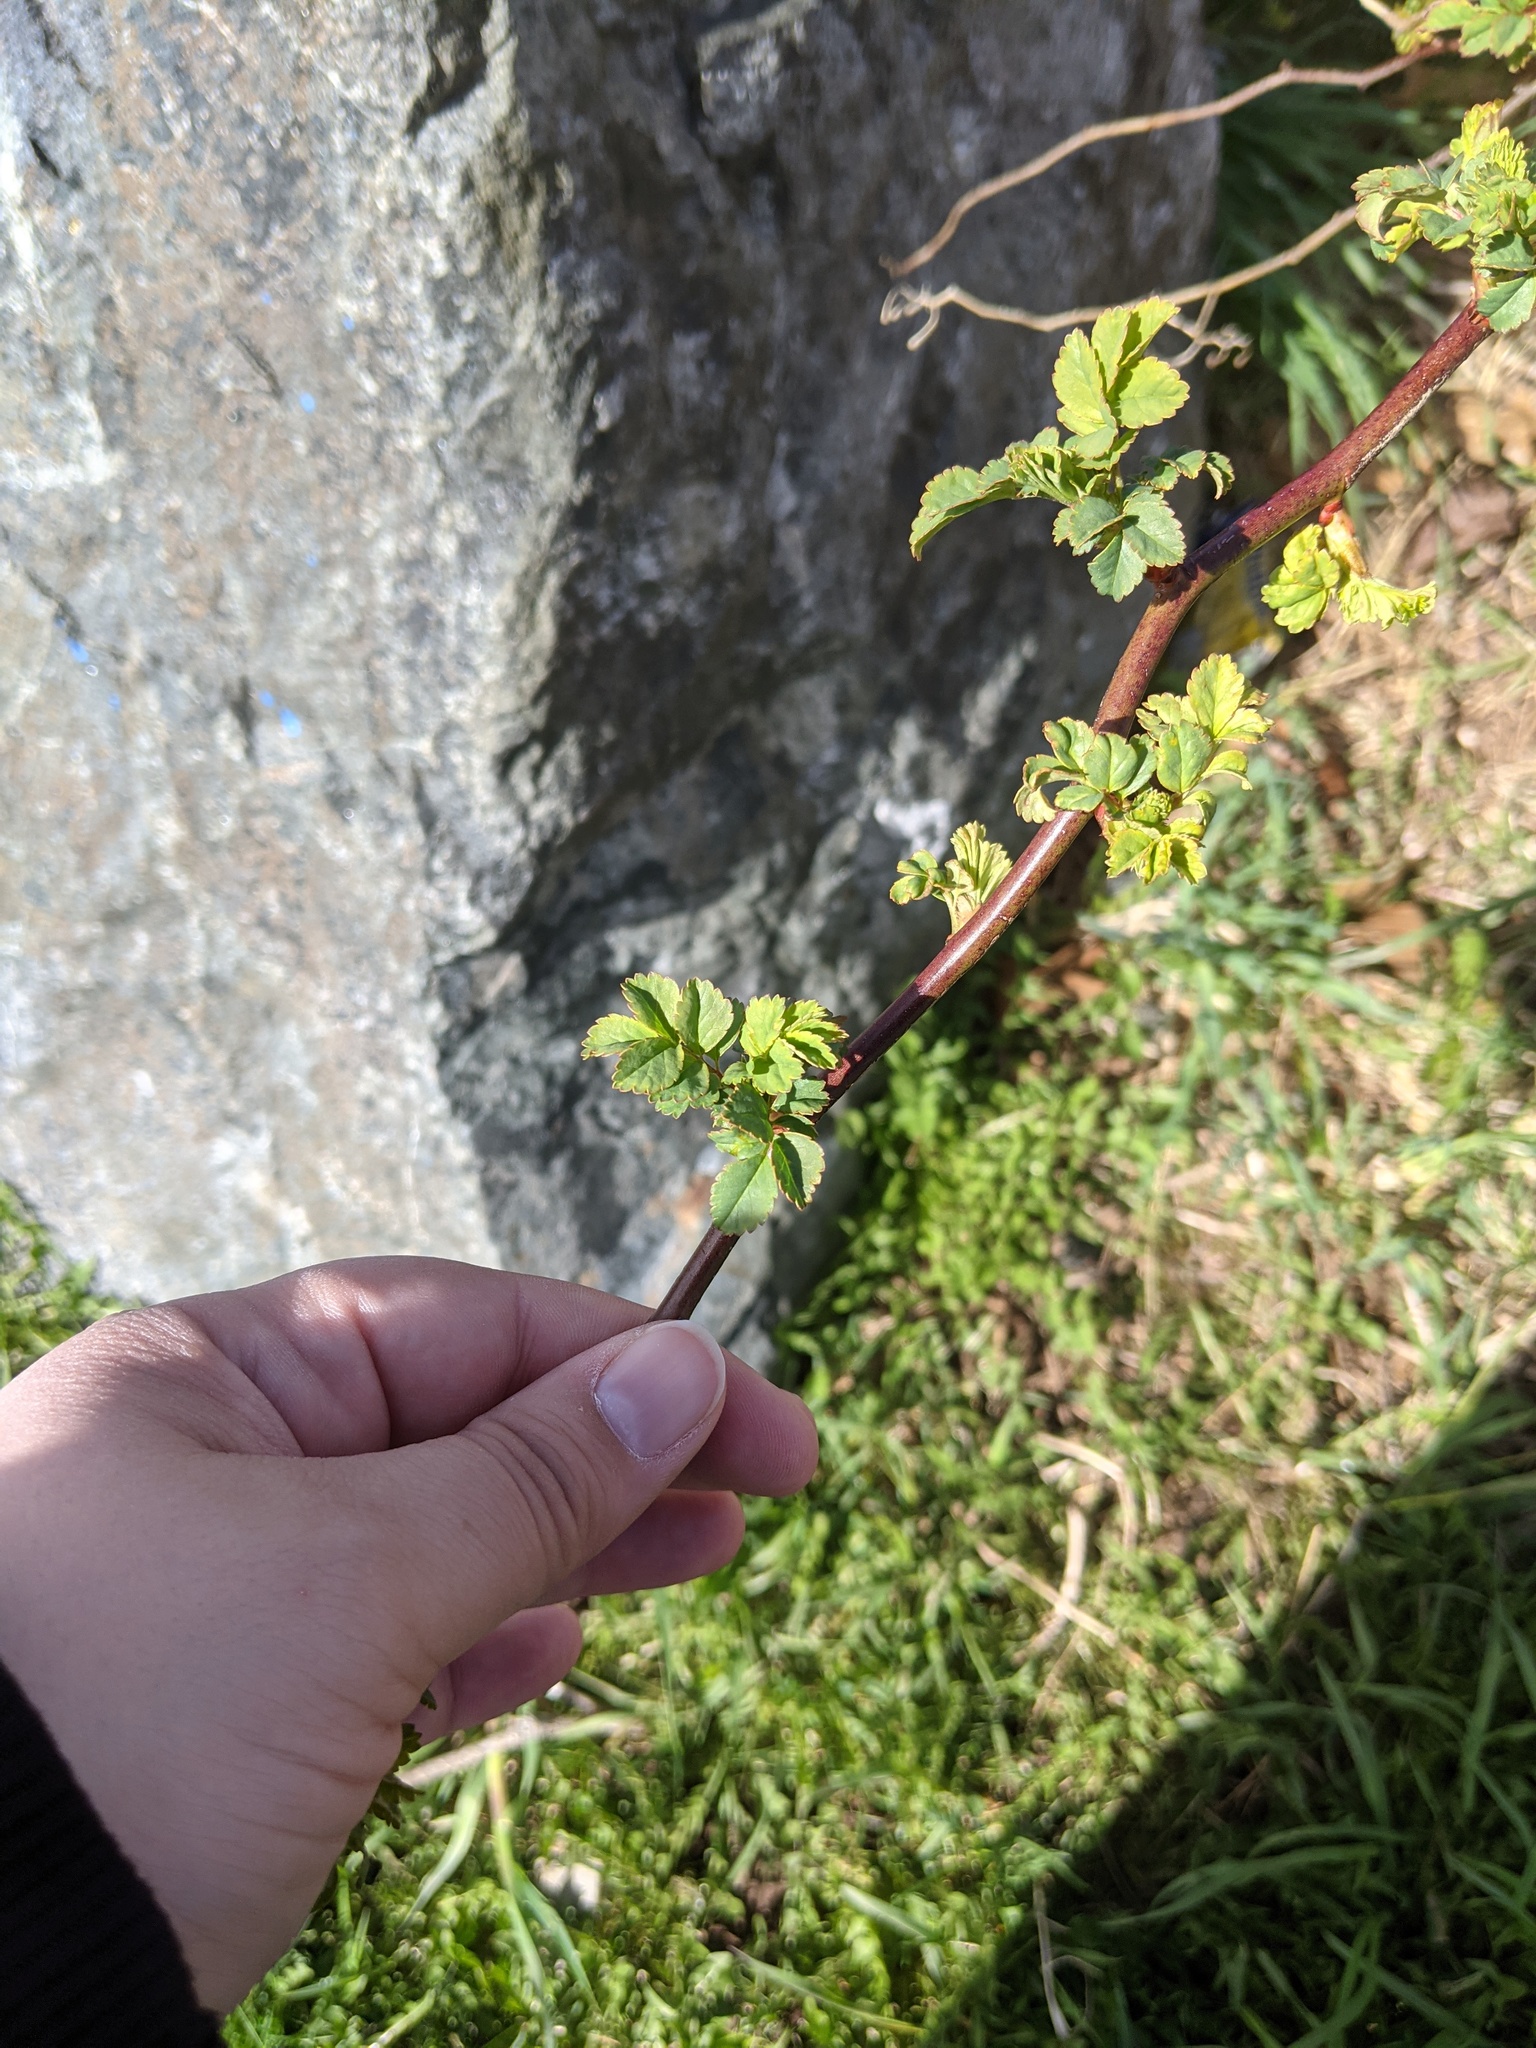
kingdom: Plantae
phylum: Tracheophyta
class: Magnoliopsida
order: Rosales
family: Rosaceae
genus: Rosa
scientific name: Rosa multiflora
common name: Multiflora rose
